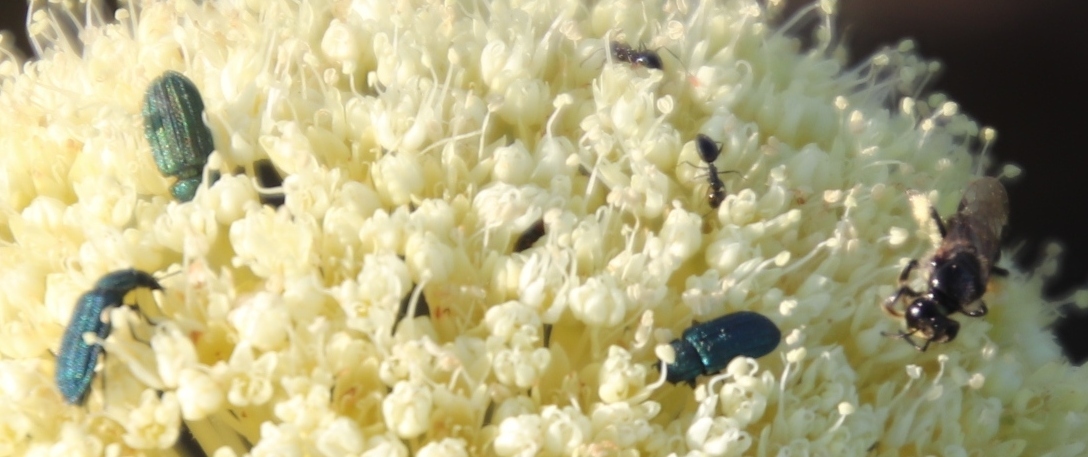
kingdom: Plantae
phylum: Tracheophyta
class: Magnoliopsida
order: Apiales
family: Apiaceae
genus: Hermas
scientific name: Hermas villosa
